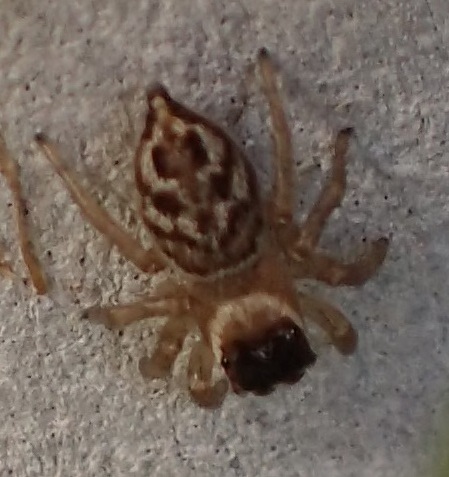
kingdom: Animalia
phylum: Arthropoda
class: Arachnida
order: Araneae
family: Salticidae
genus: Maratus
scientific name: Maratus griseus
